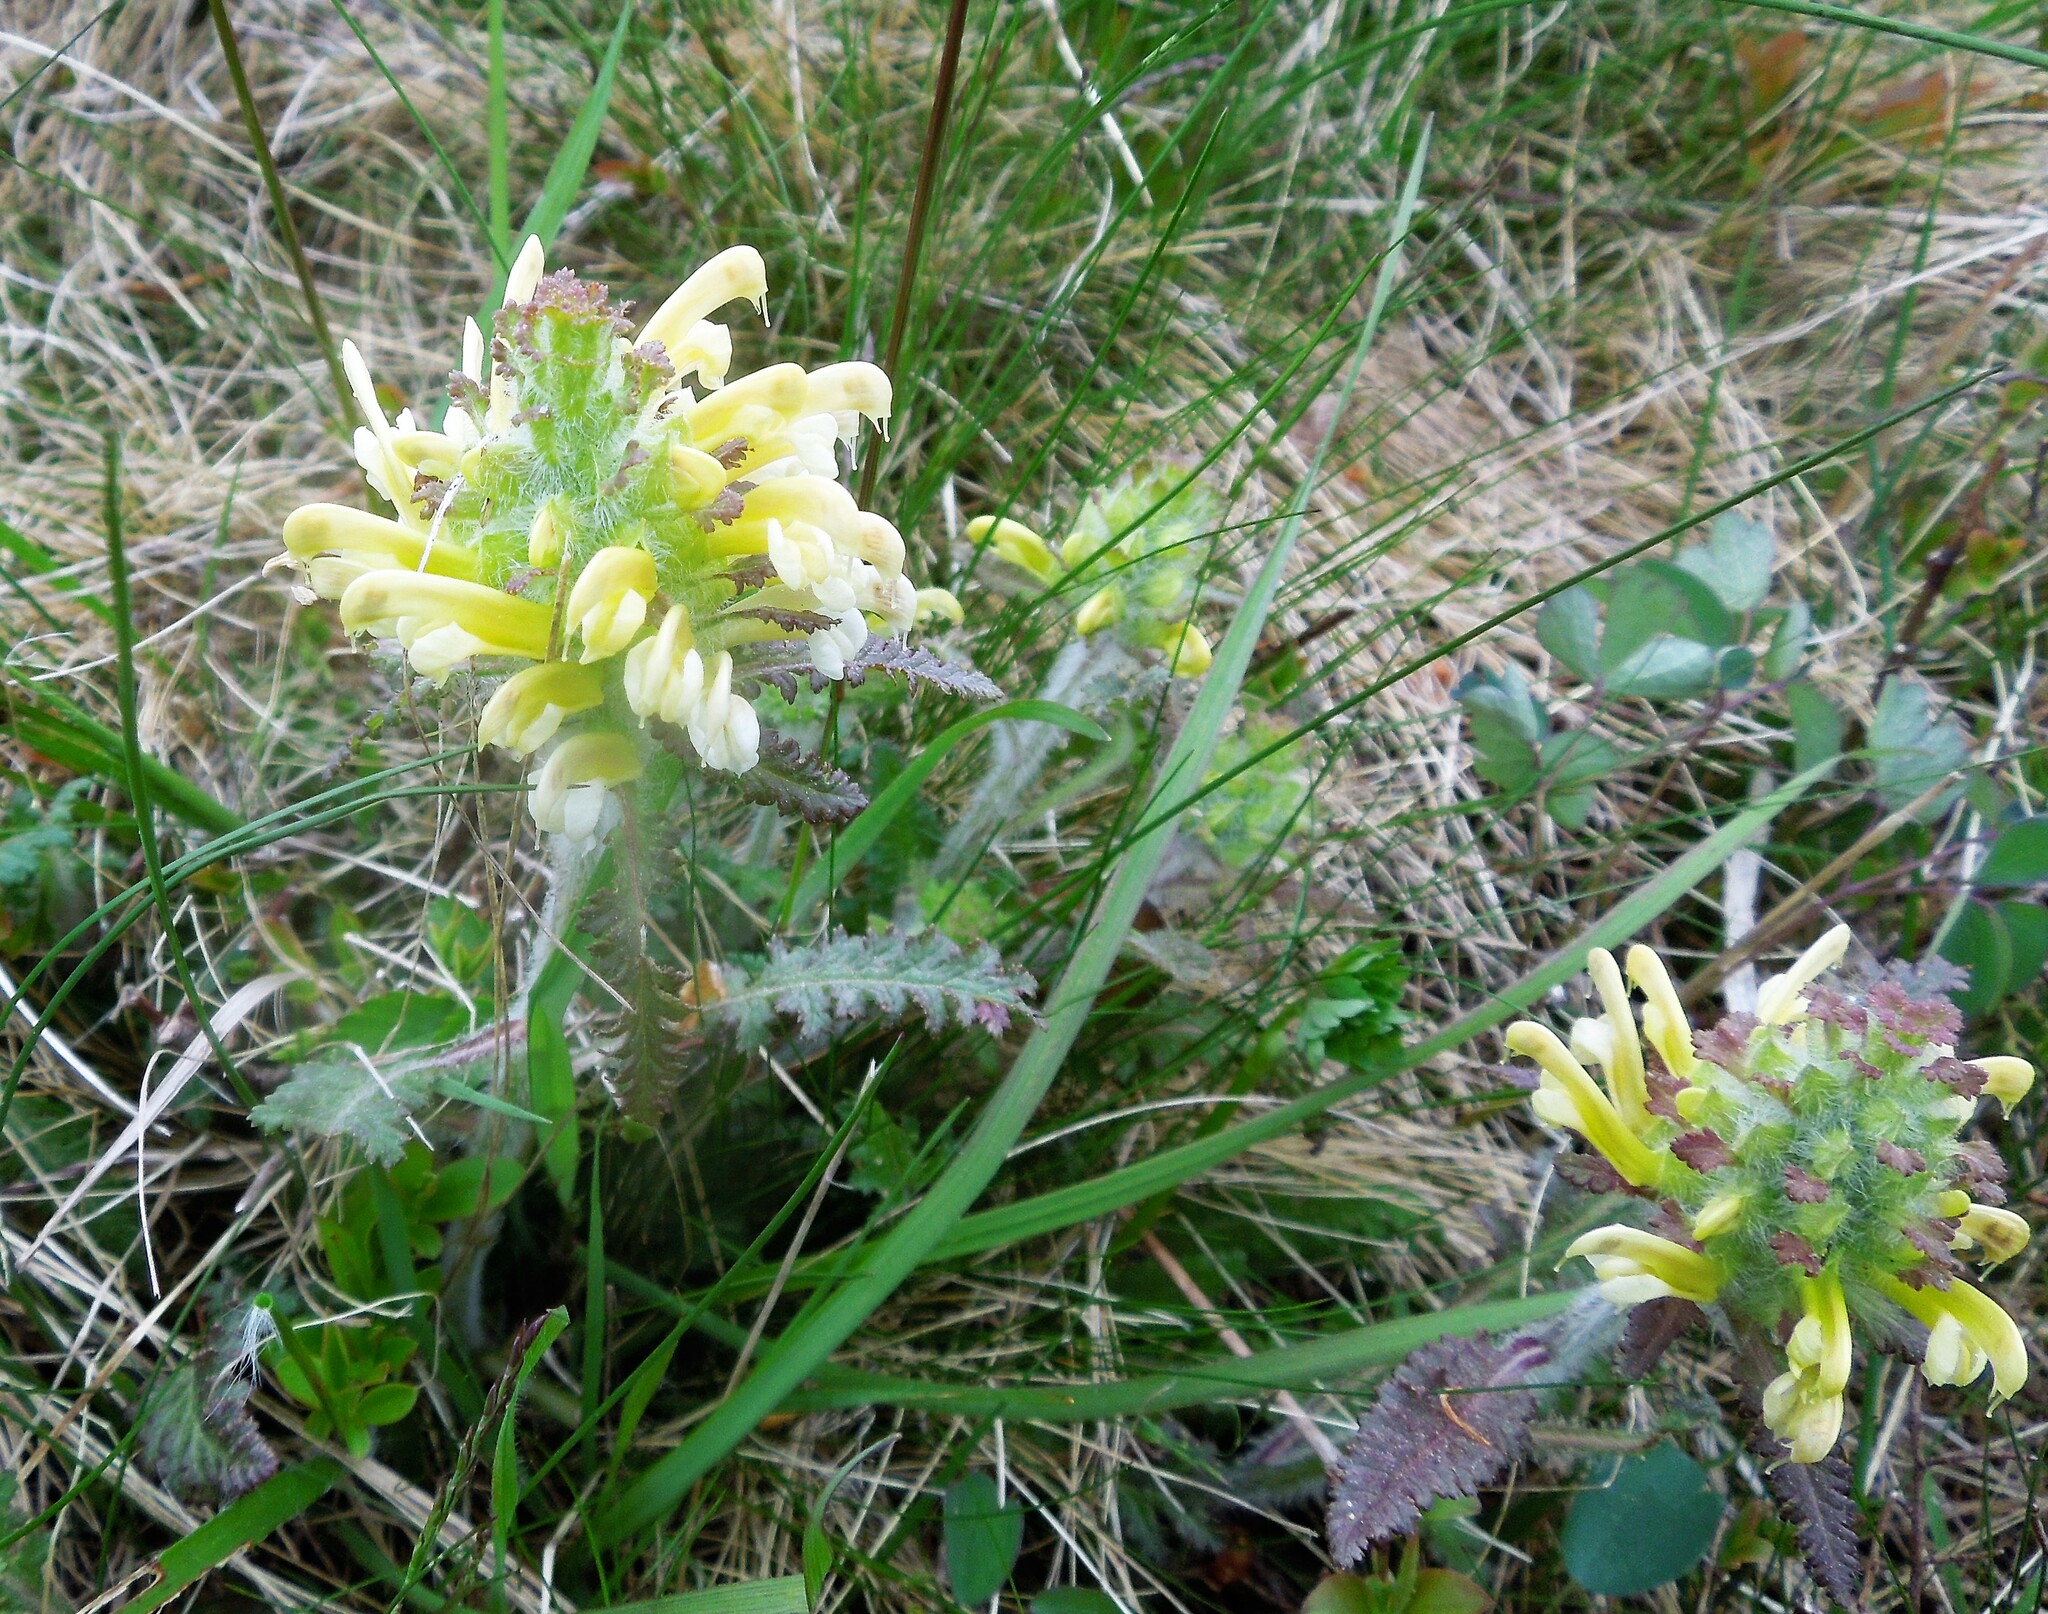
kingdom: Plantae
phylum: Tracheophyta
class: Magnoliopsida
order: Lamiales
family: Orobanchaceae
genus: Pedicularis
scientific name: Pedicularis canadensis
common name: Early lousewort
